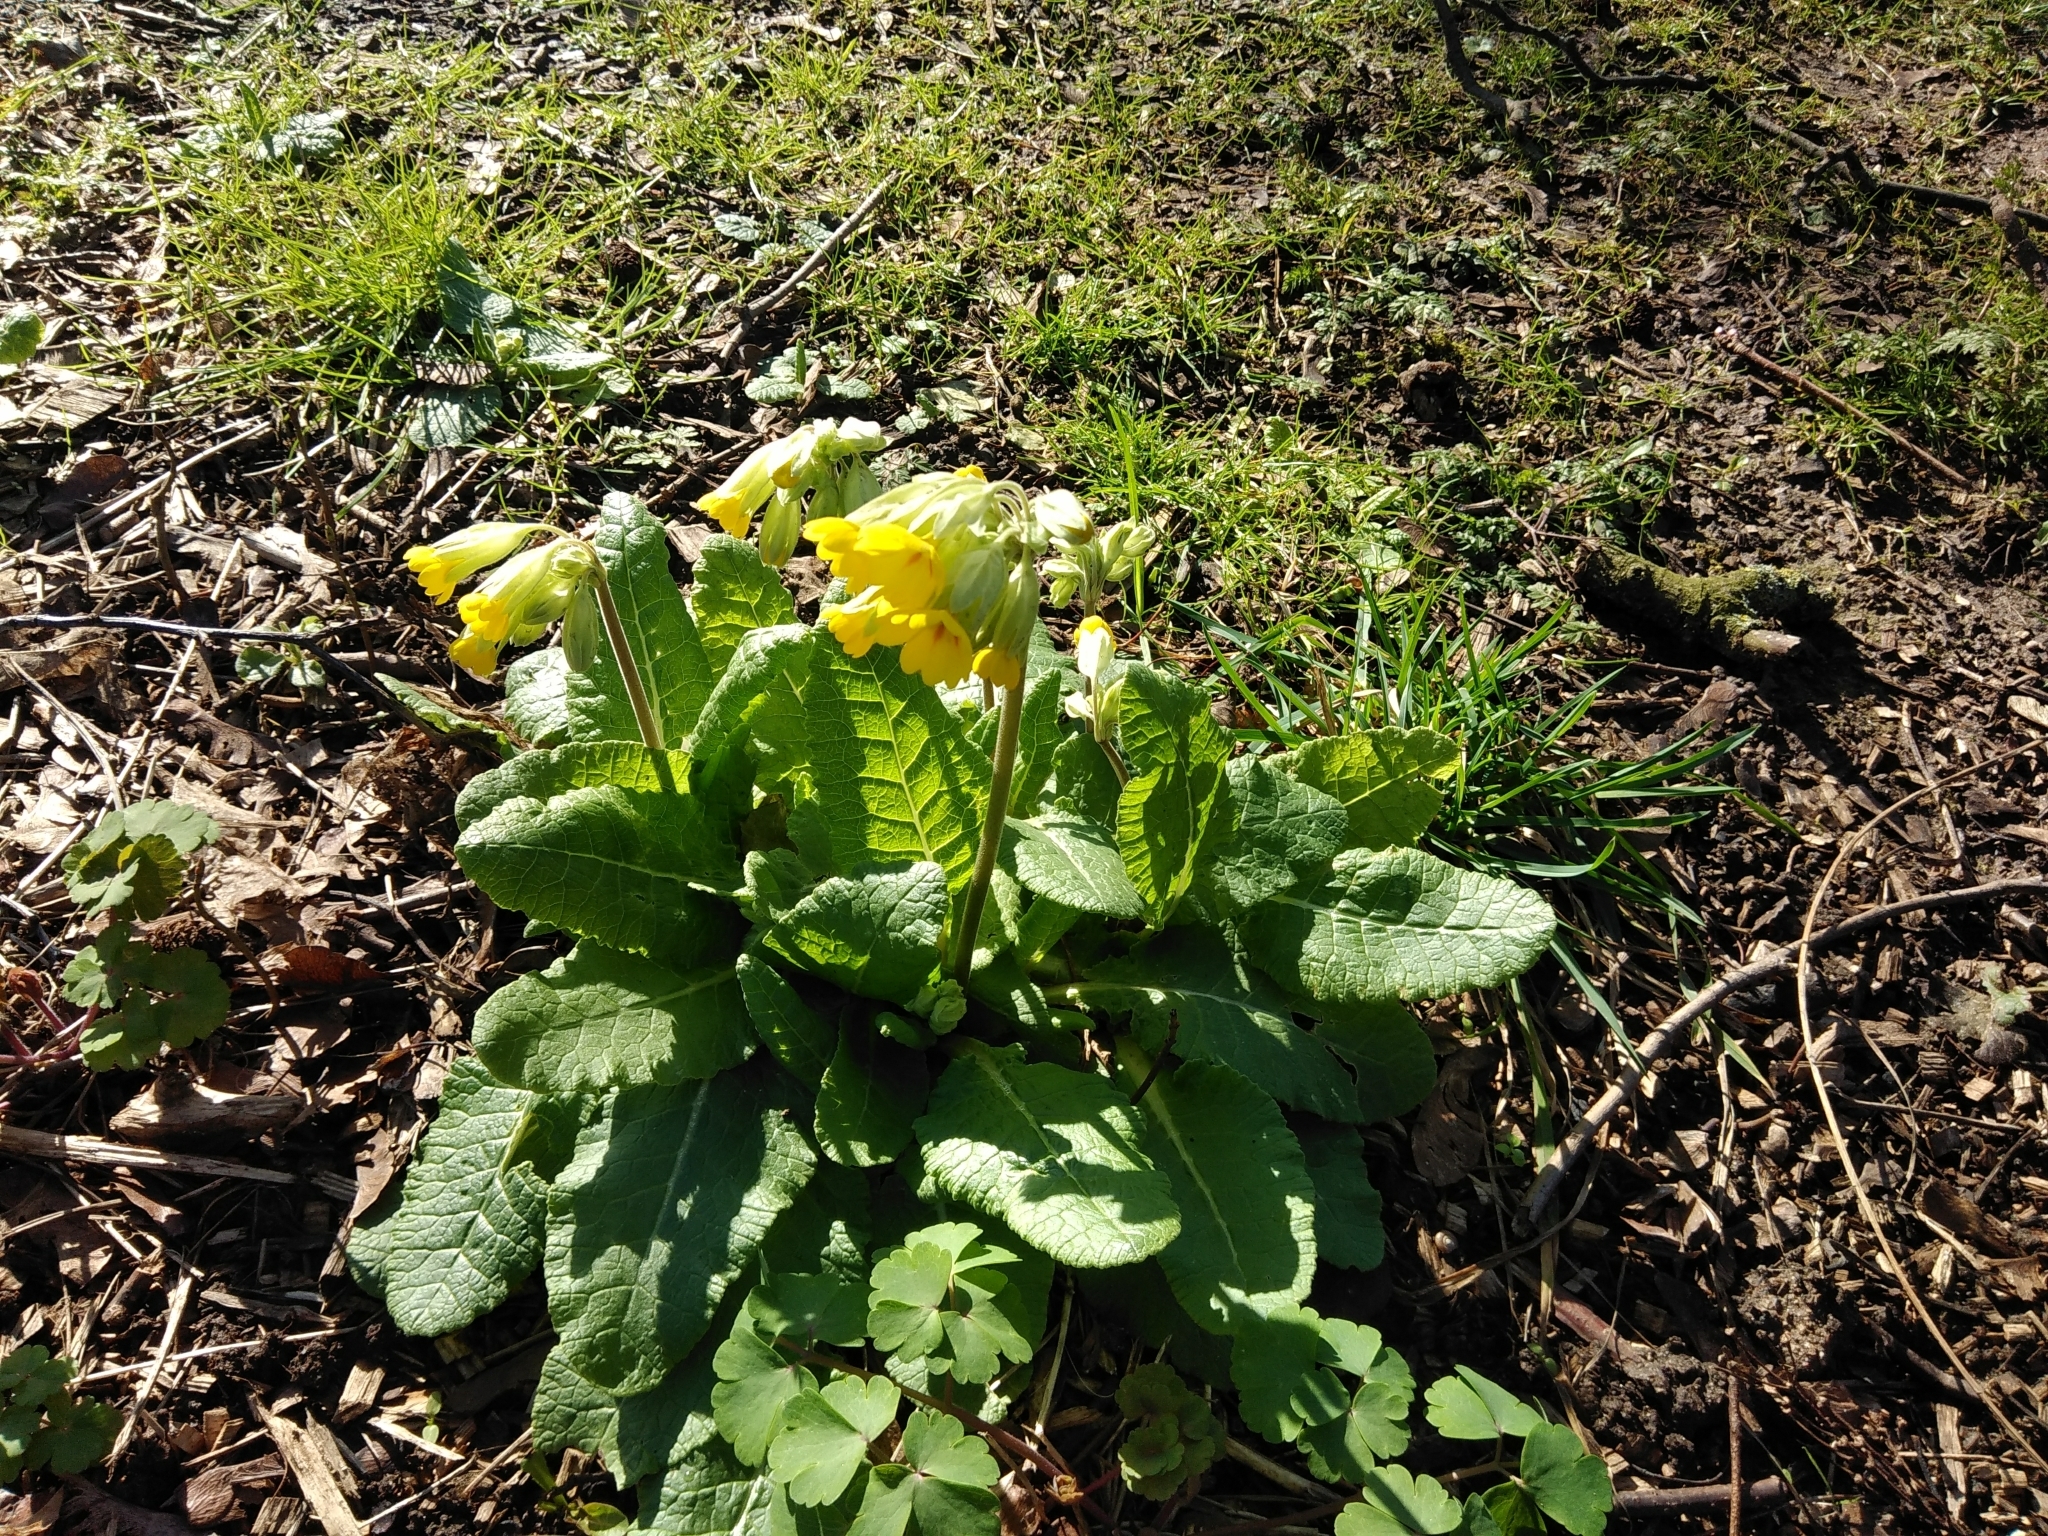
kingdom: Plantae
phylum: Tracheophyta
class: Magnoliopsida
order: Ericales
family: Primulaceae
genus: Primula
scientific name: Primula veris
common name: Cowslip
